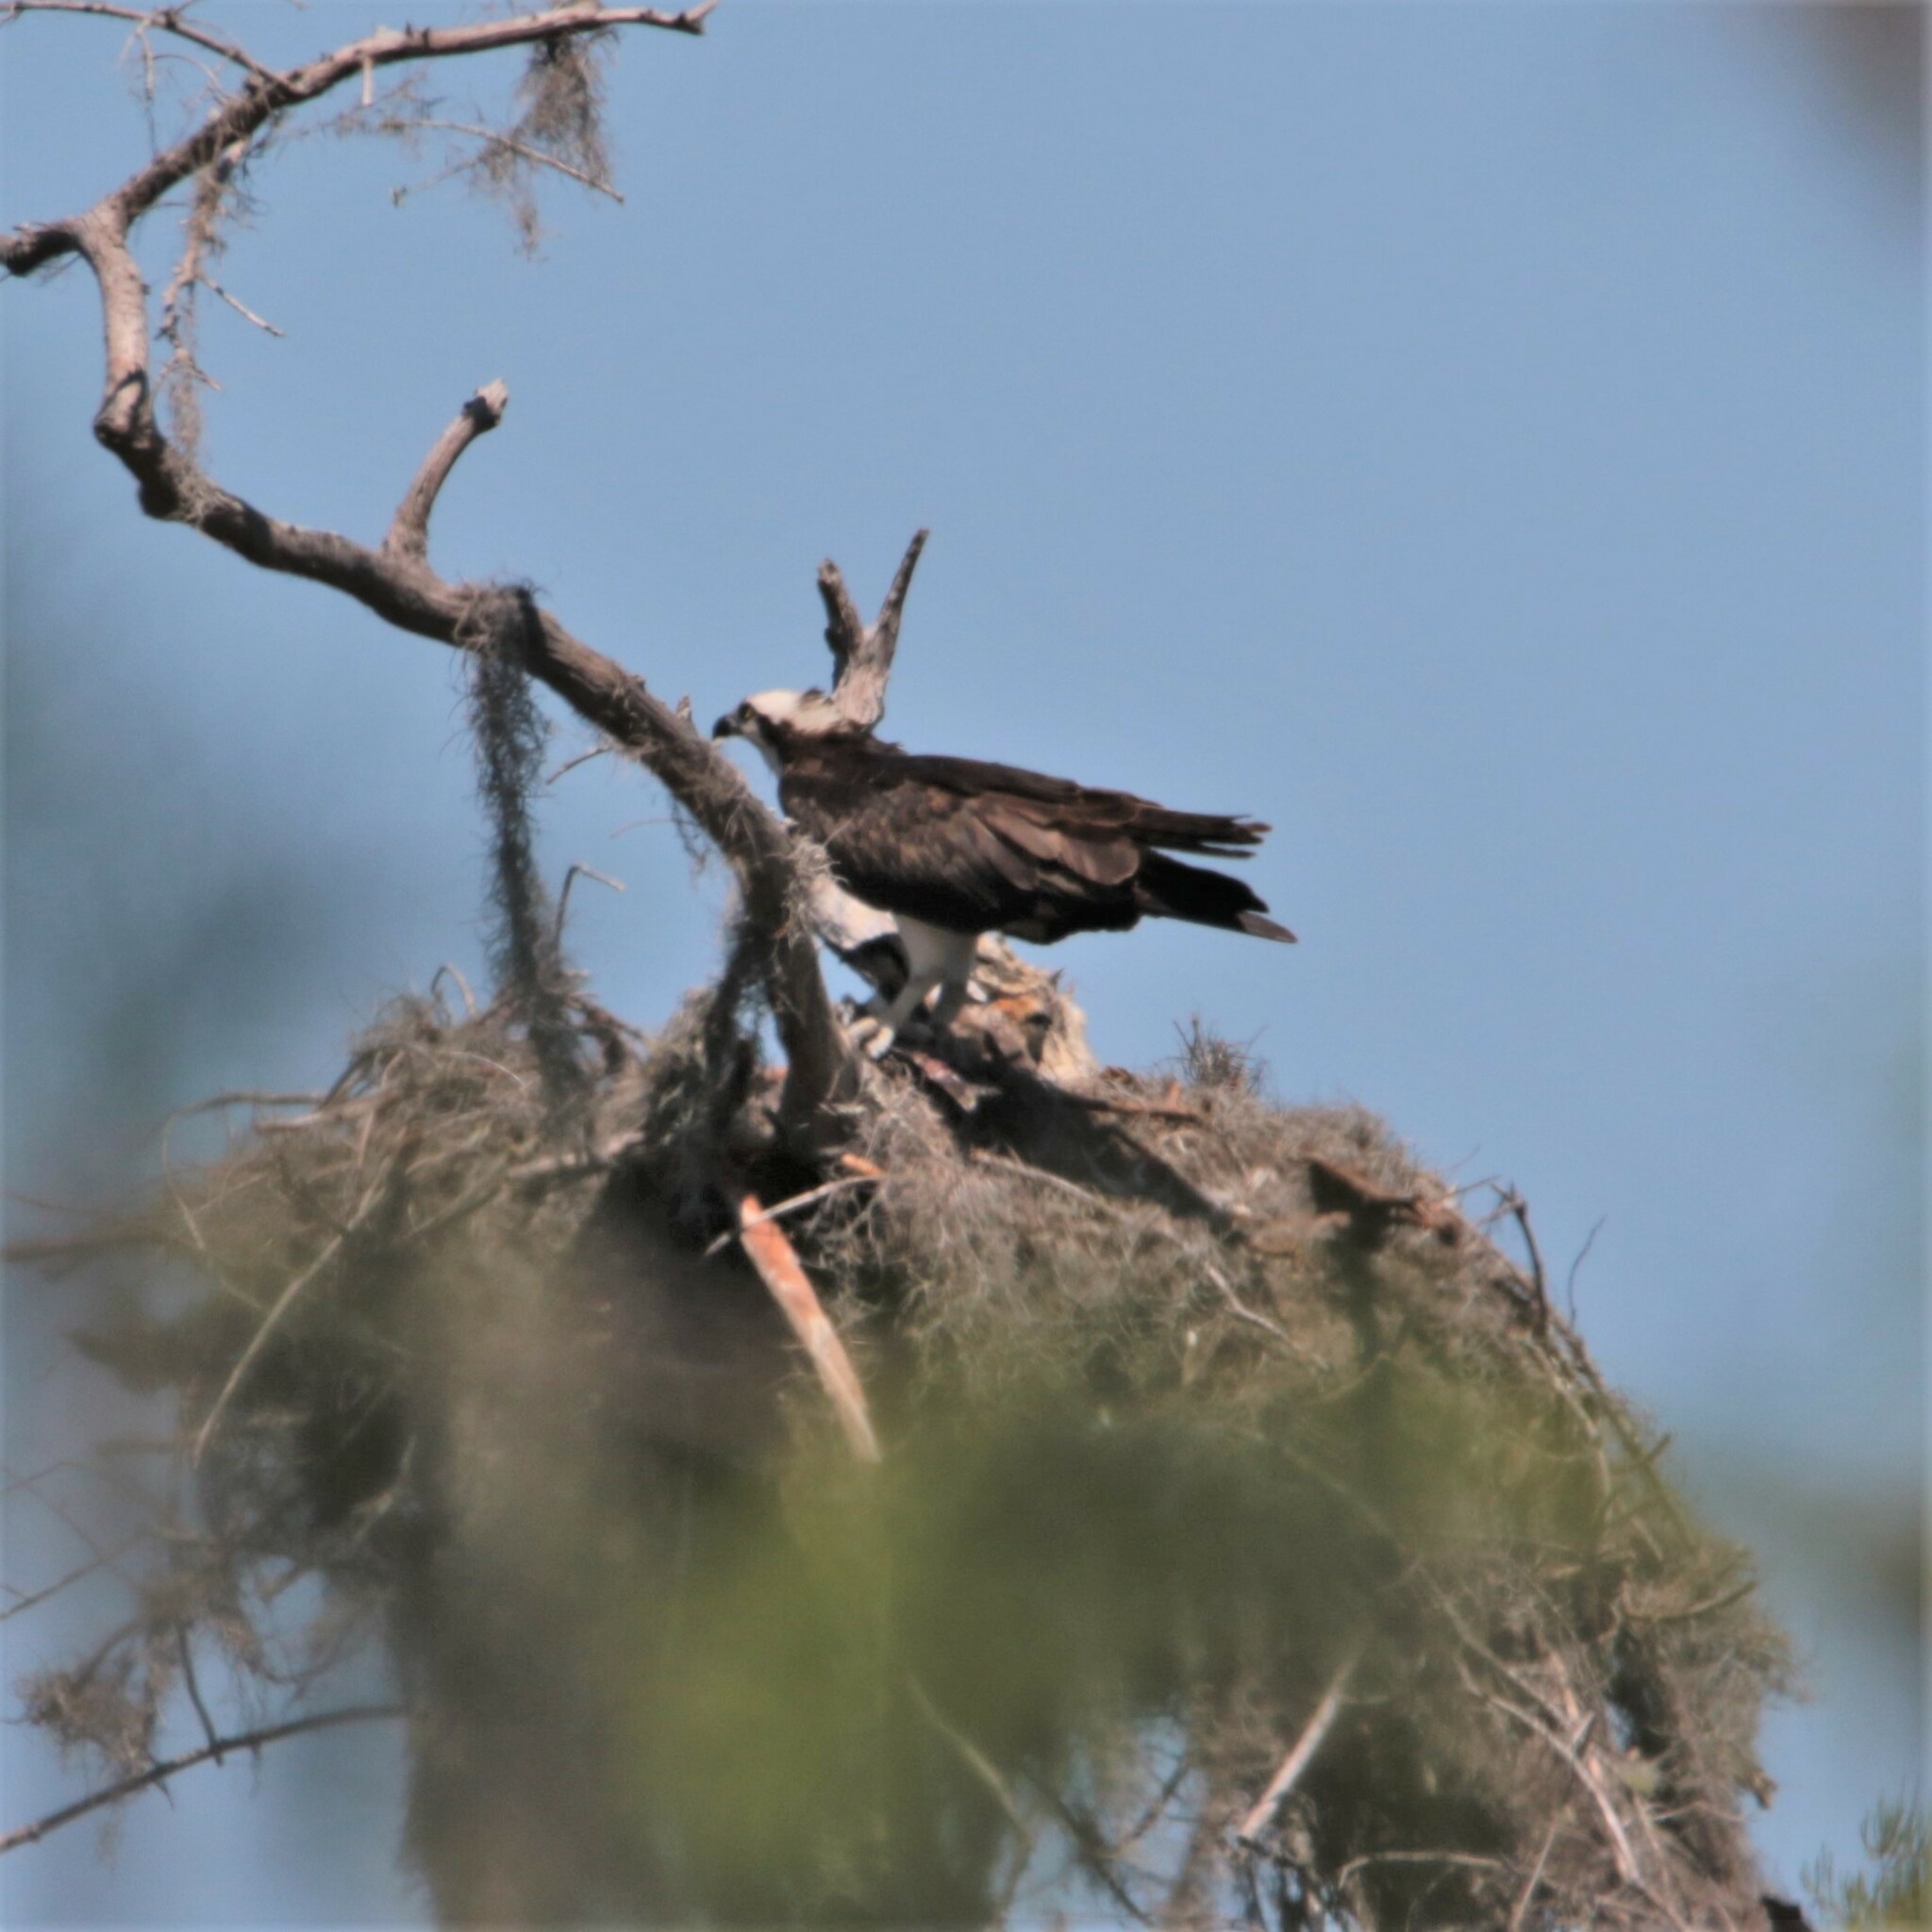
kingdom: Animalia
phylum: Chordata
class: Aves
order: Accipitriformes
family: Pandionidae
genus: Pandion
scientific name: Pandion haliaetus
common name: Osprey
